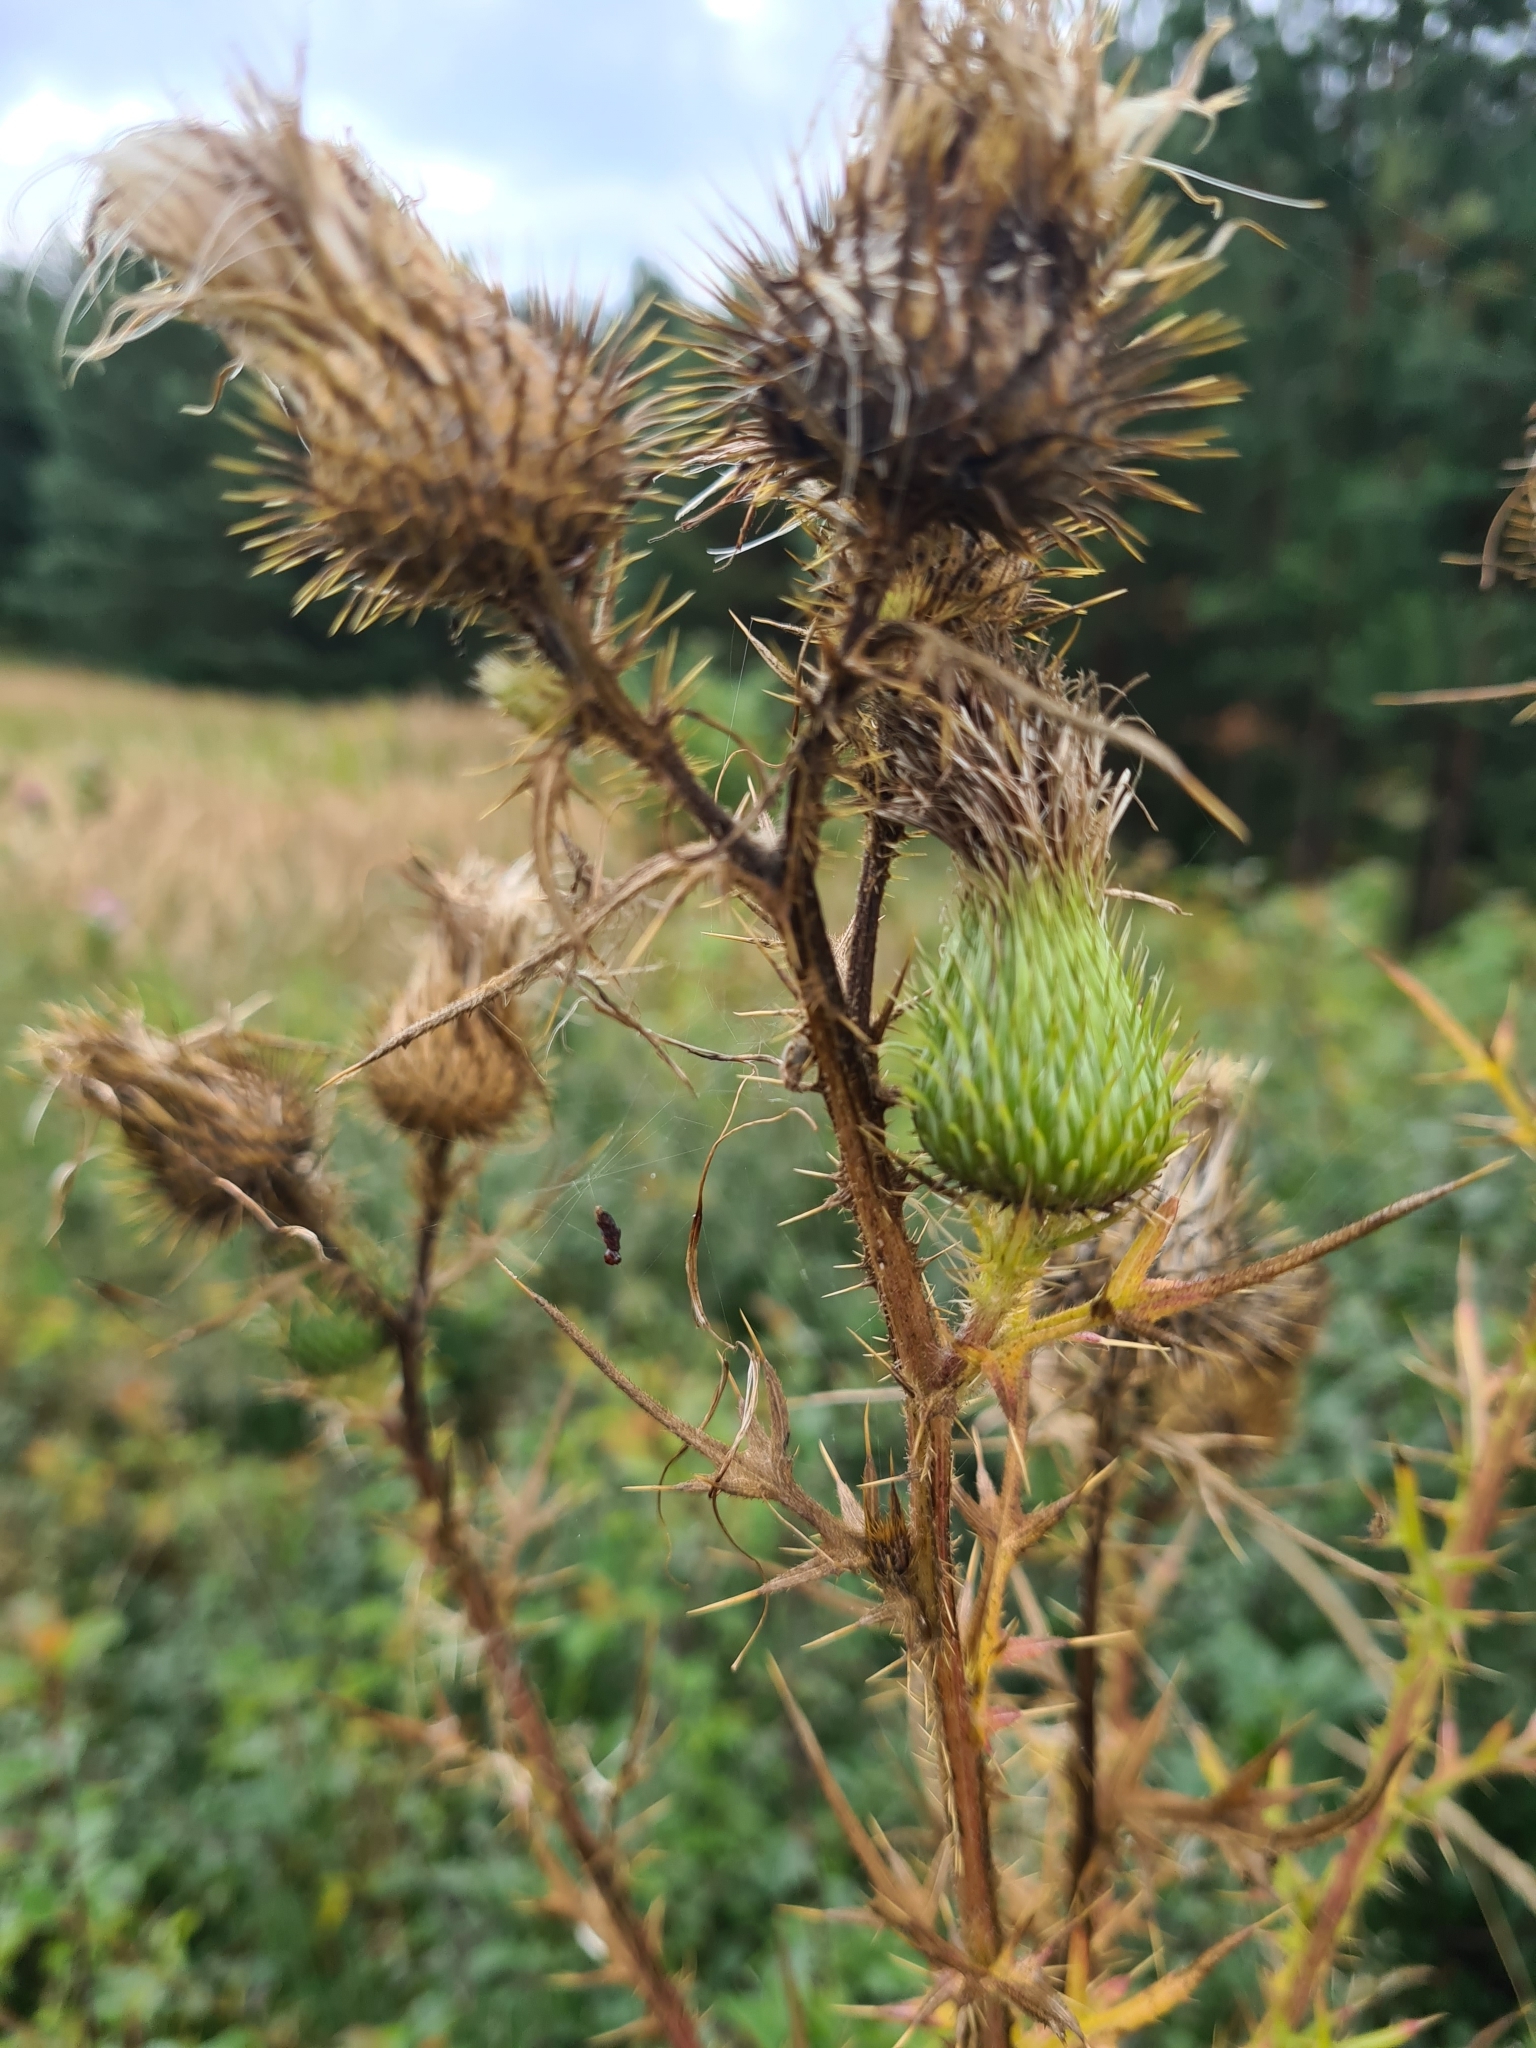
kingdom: Plantae
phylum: Tracheophyta
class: Magnoliopsida
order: Asterales
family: Asteraceae
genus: Cirsium
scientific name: Cirsium vulgare
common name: Bull thistle
